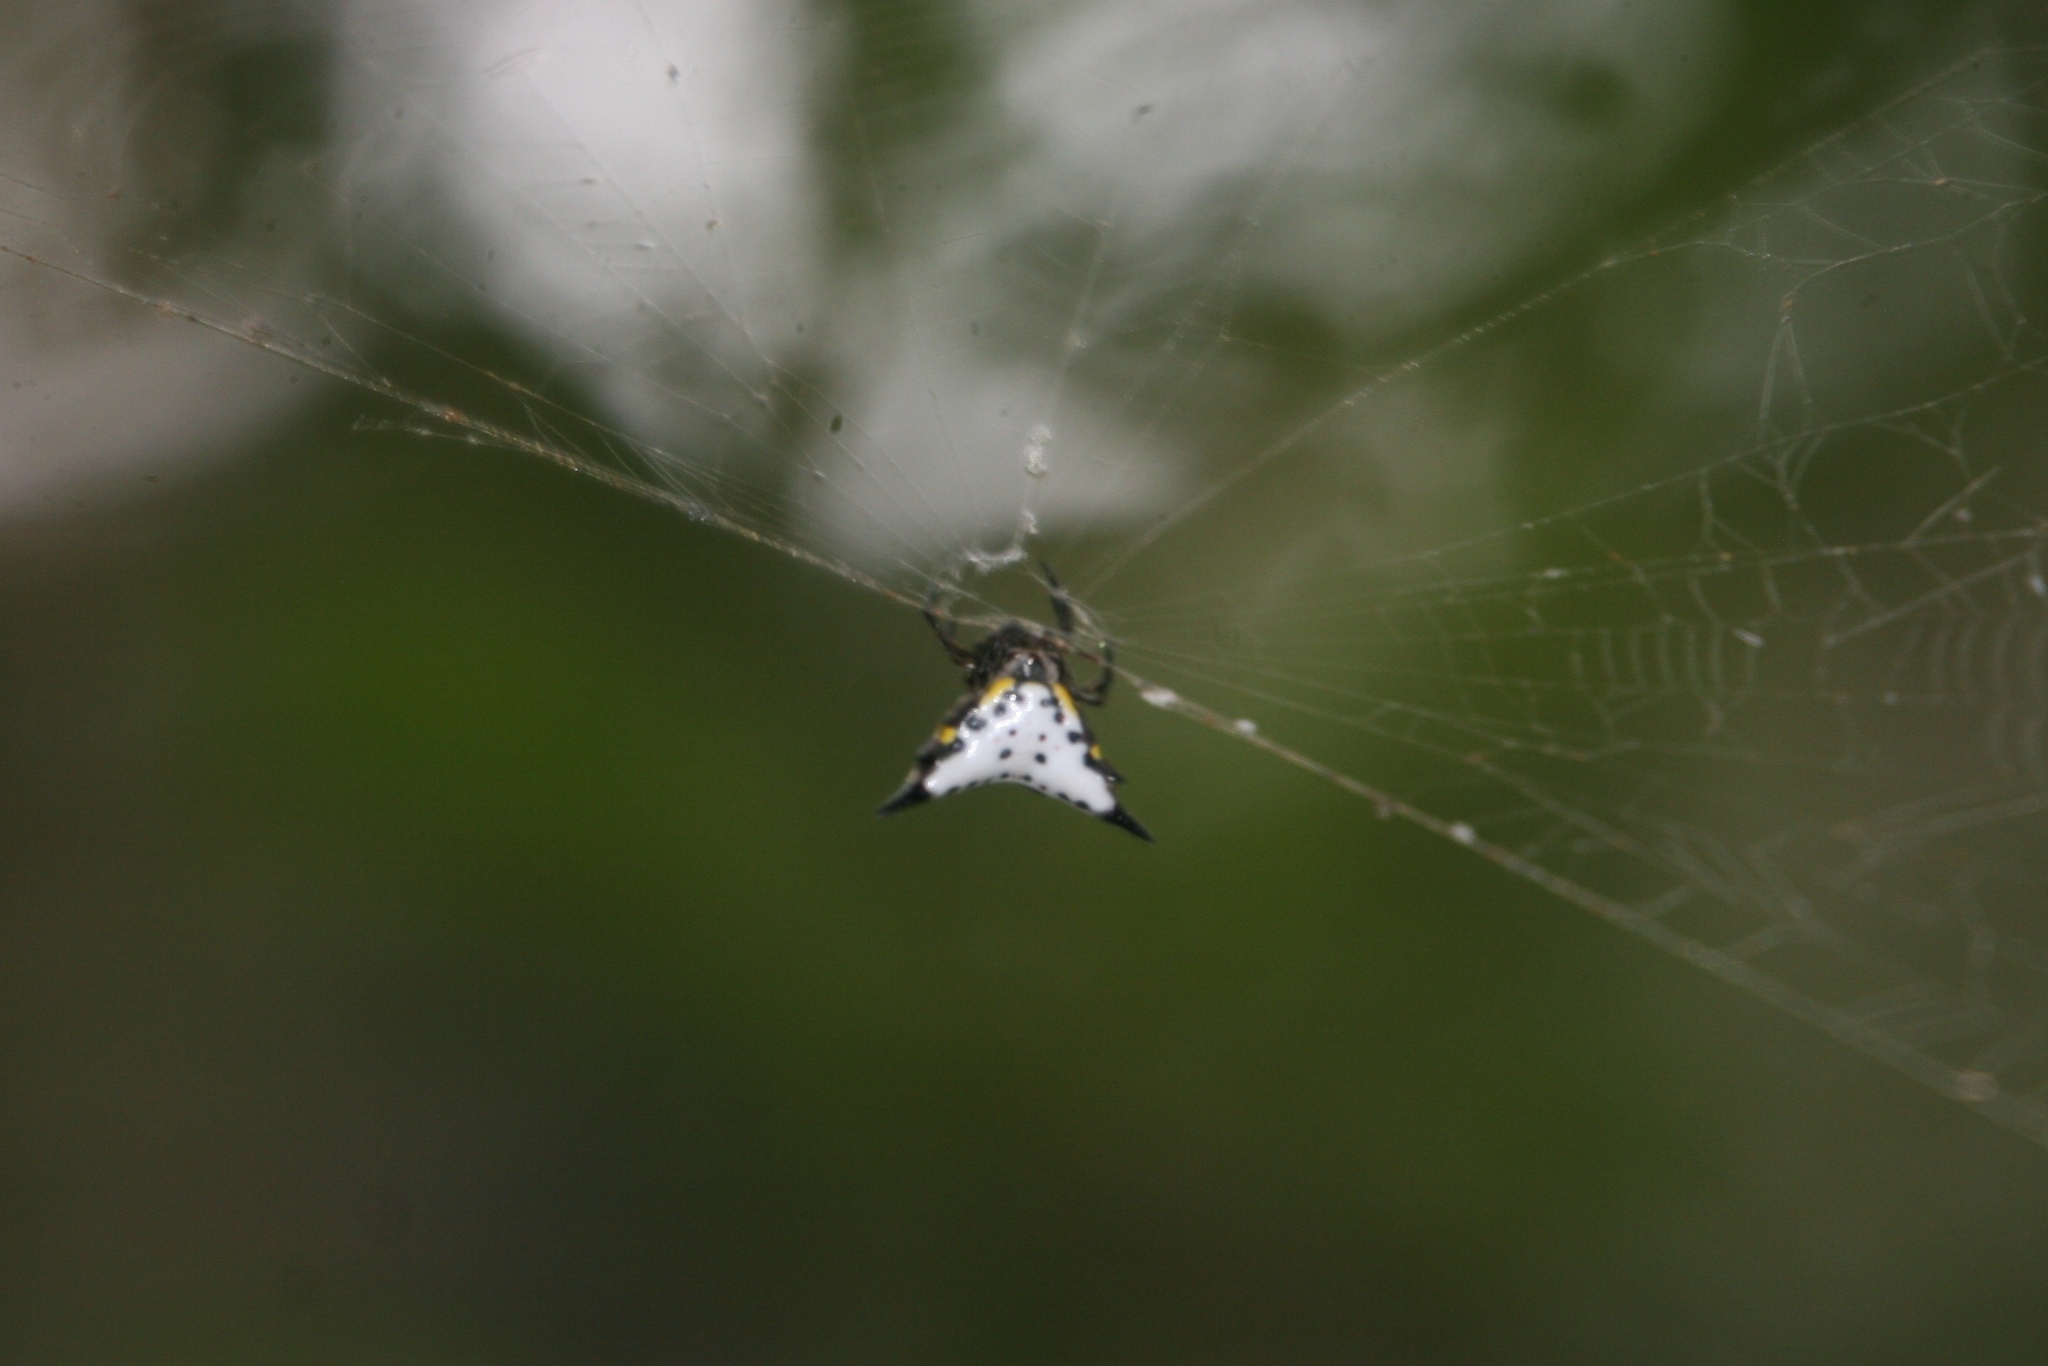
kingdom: Animalia
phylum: Arthropoda
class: Arachnida
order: Araneae
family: Araneidae
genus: Acrosomoides
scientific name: Acrosomoides acrosomoides
